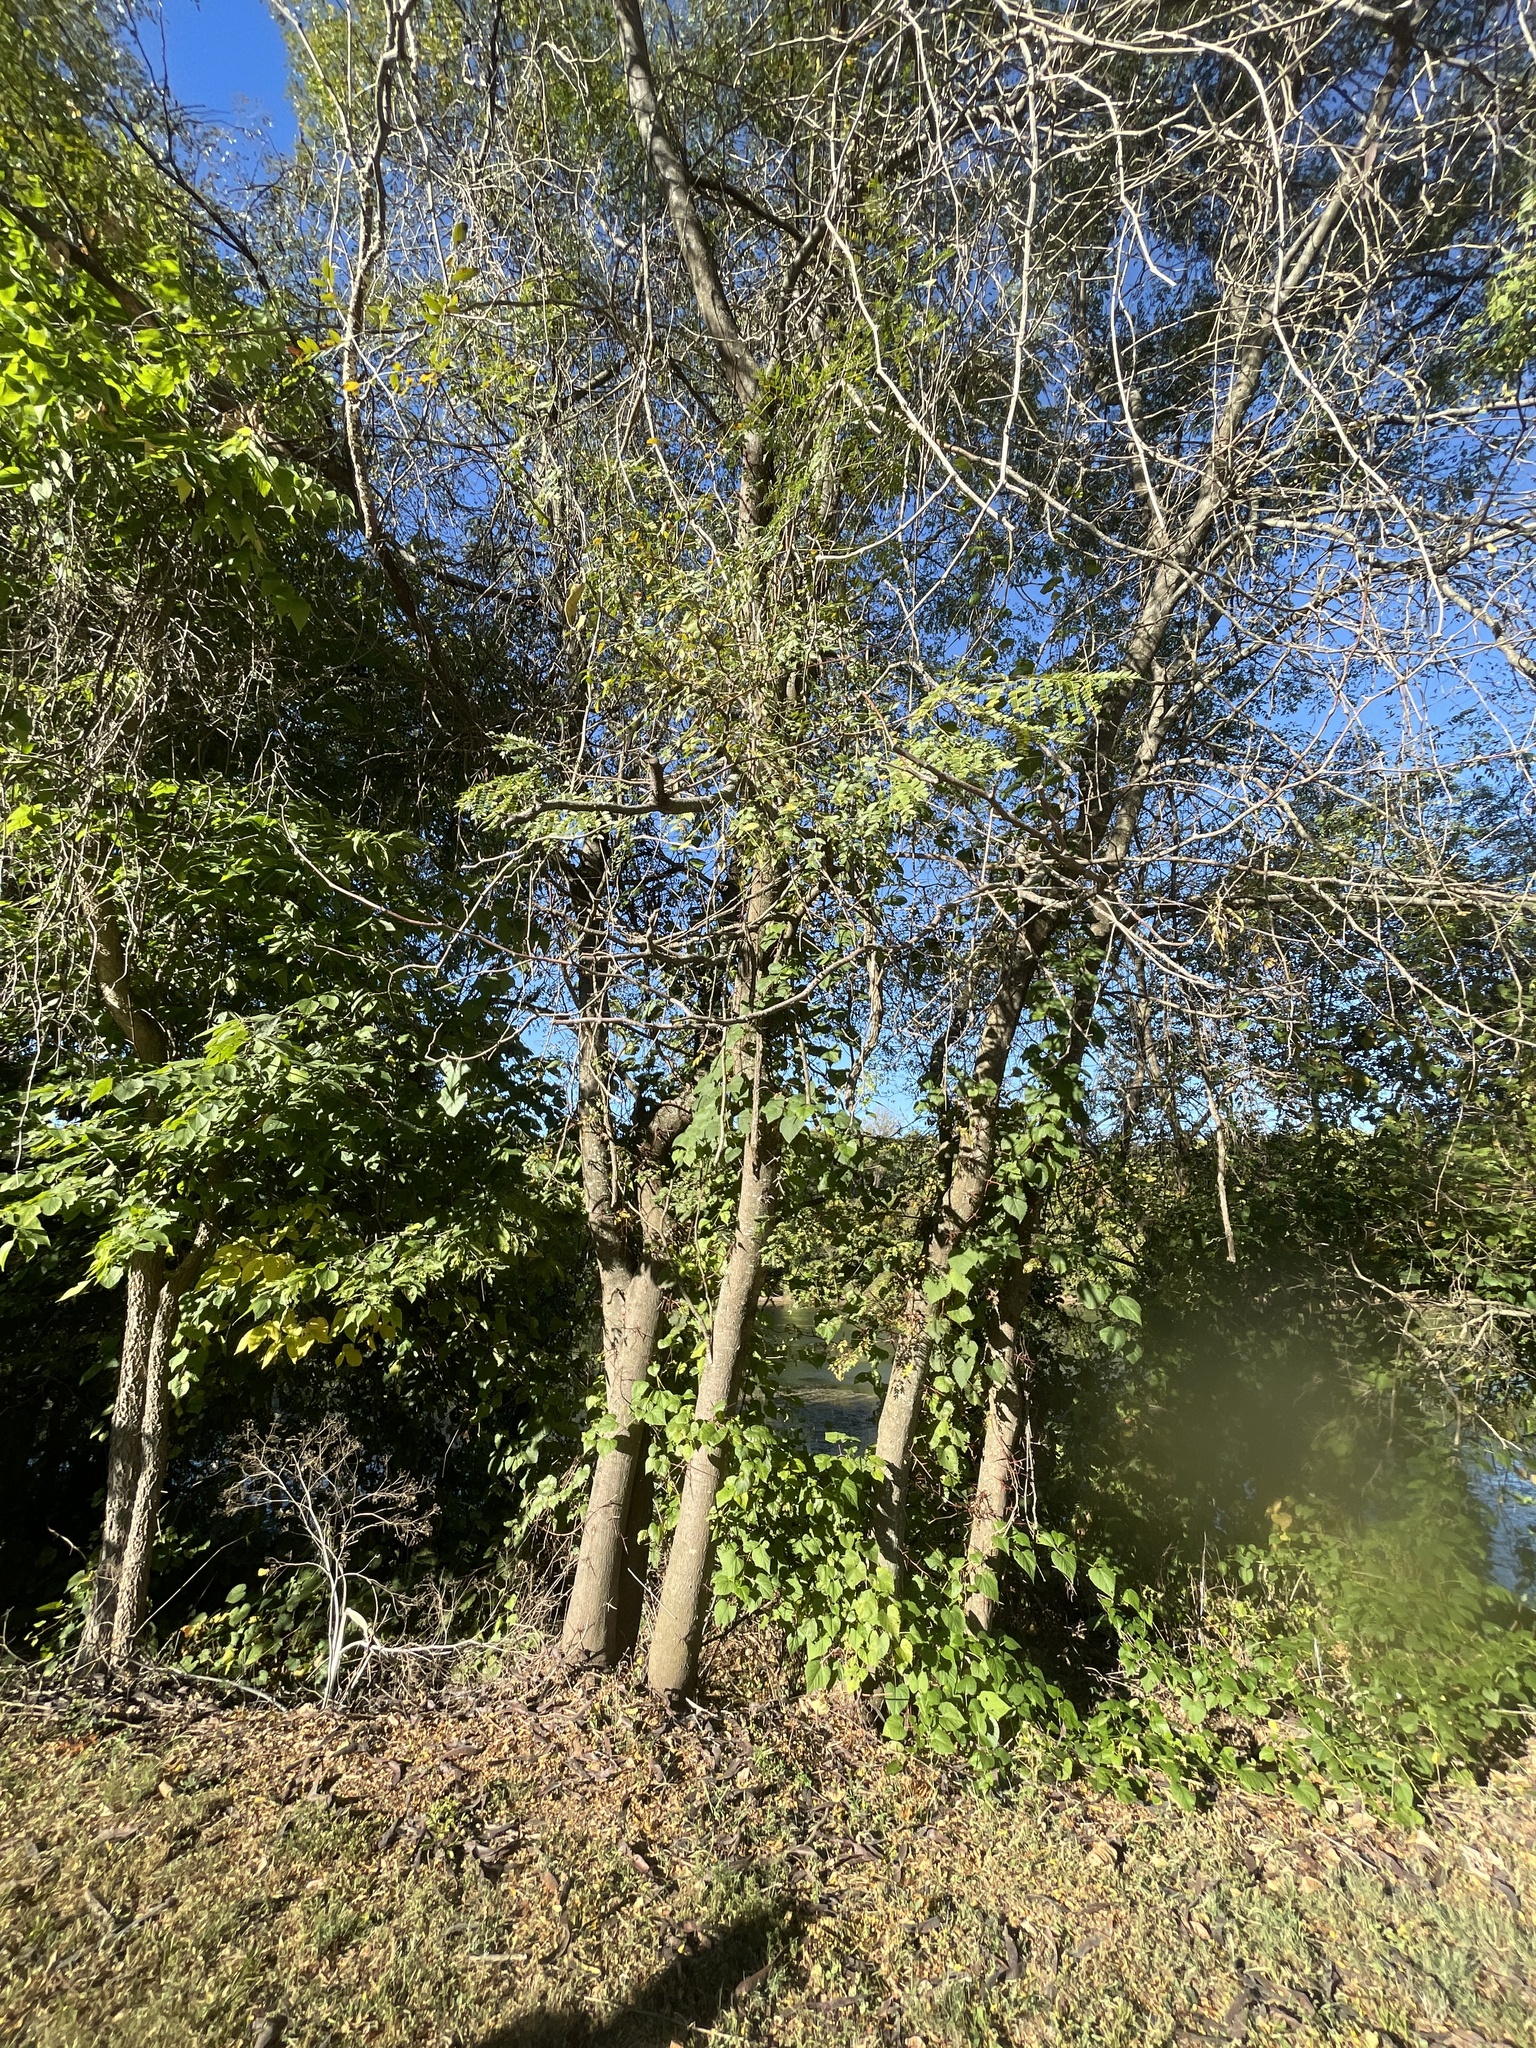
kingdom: Plantae
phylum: Tracheophyta
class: Magnoliopsida
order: Fabales
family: Fabaceae
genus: Gleditsia
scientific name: Gleditsia triacanthos
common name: Common honeylocust
